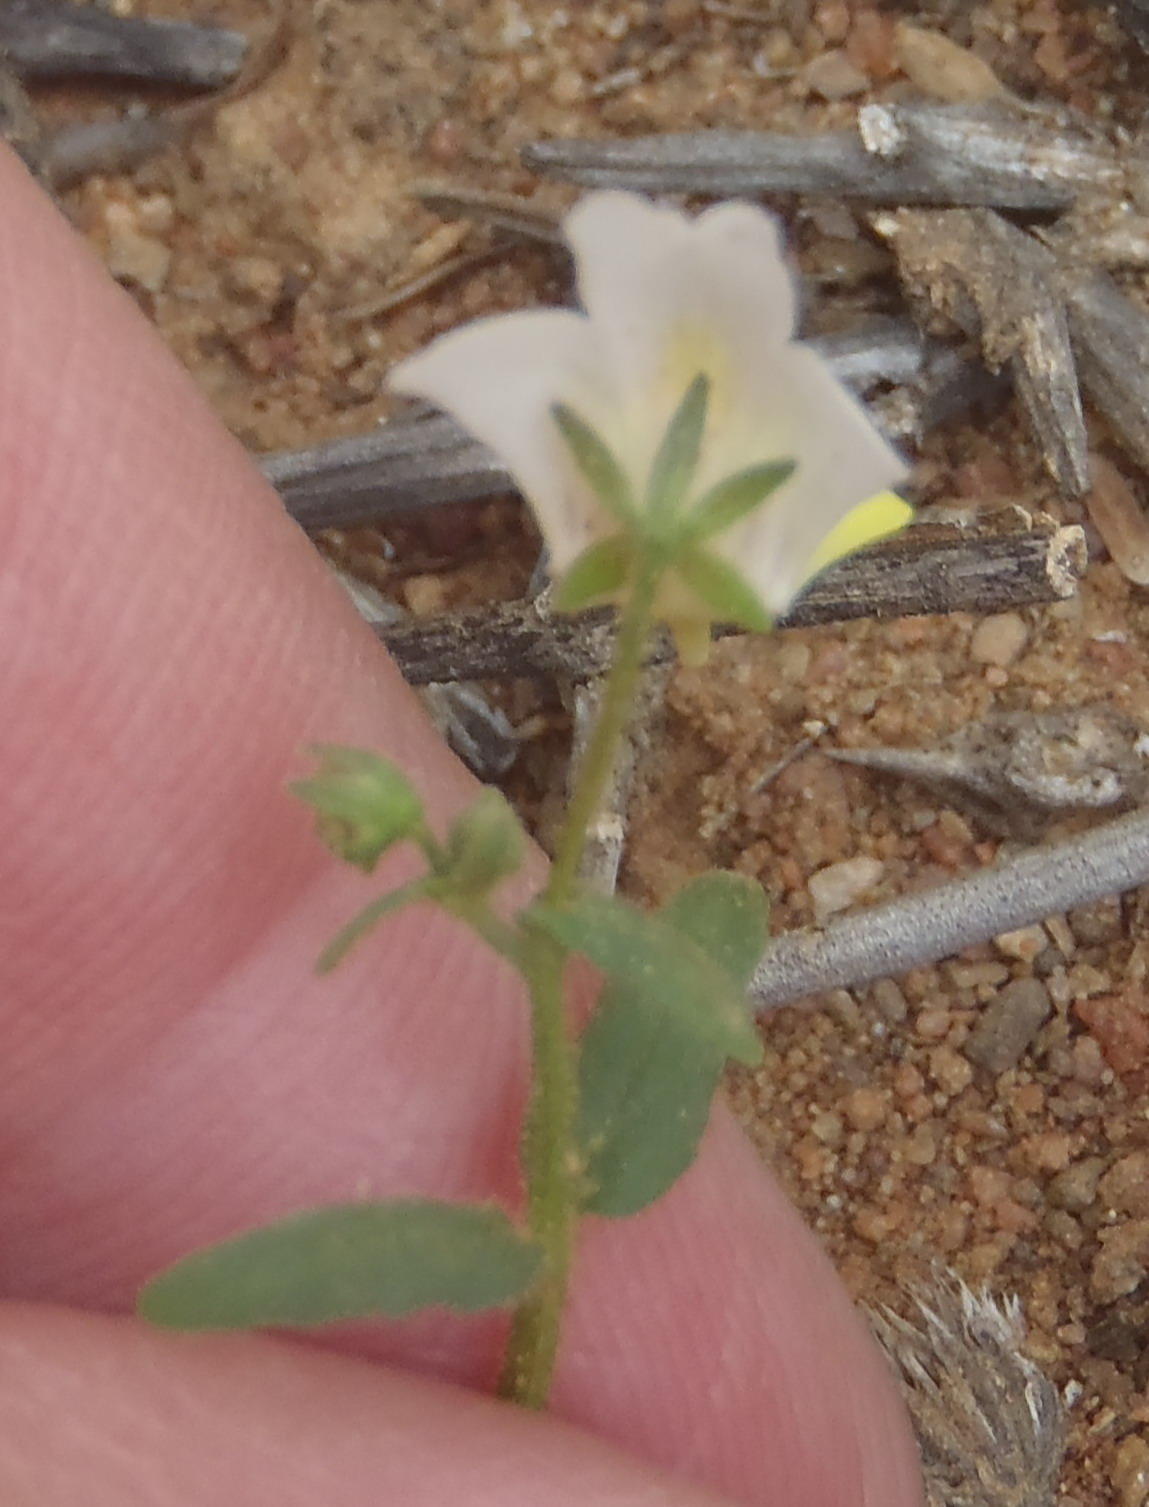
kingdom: Plantae
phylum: Tracheophyta
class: Magnoliopsida
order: Lamiales
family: Scrophulariaceae
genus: Nemesia
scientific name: Nemesia anisocarpa
